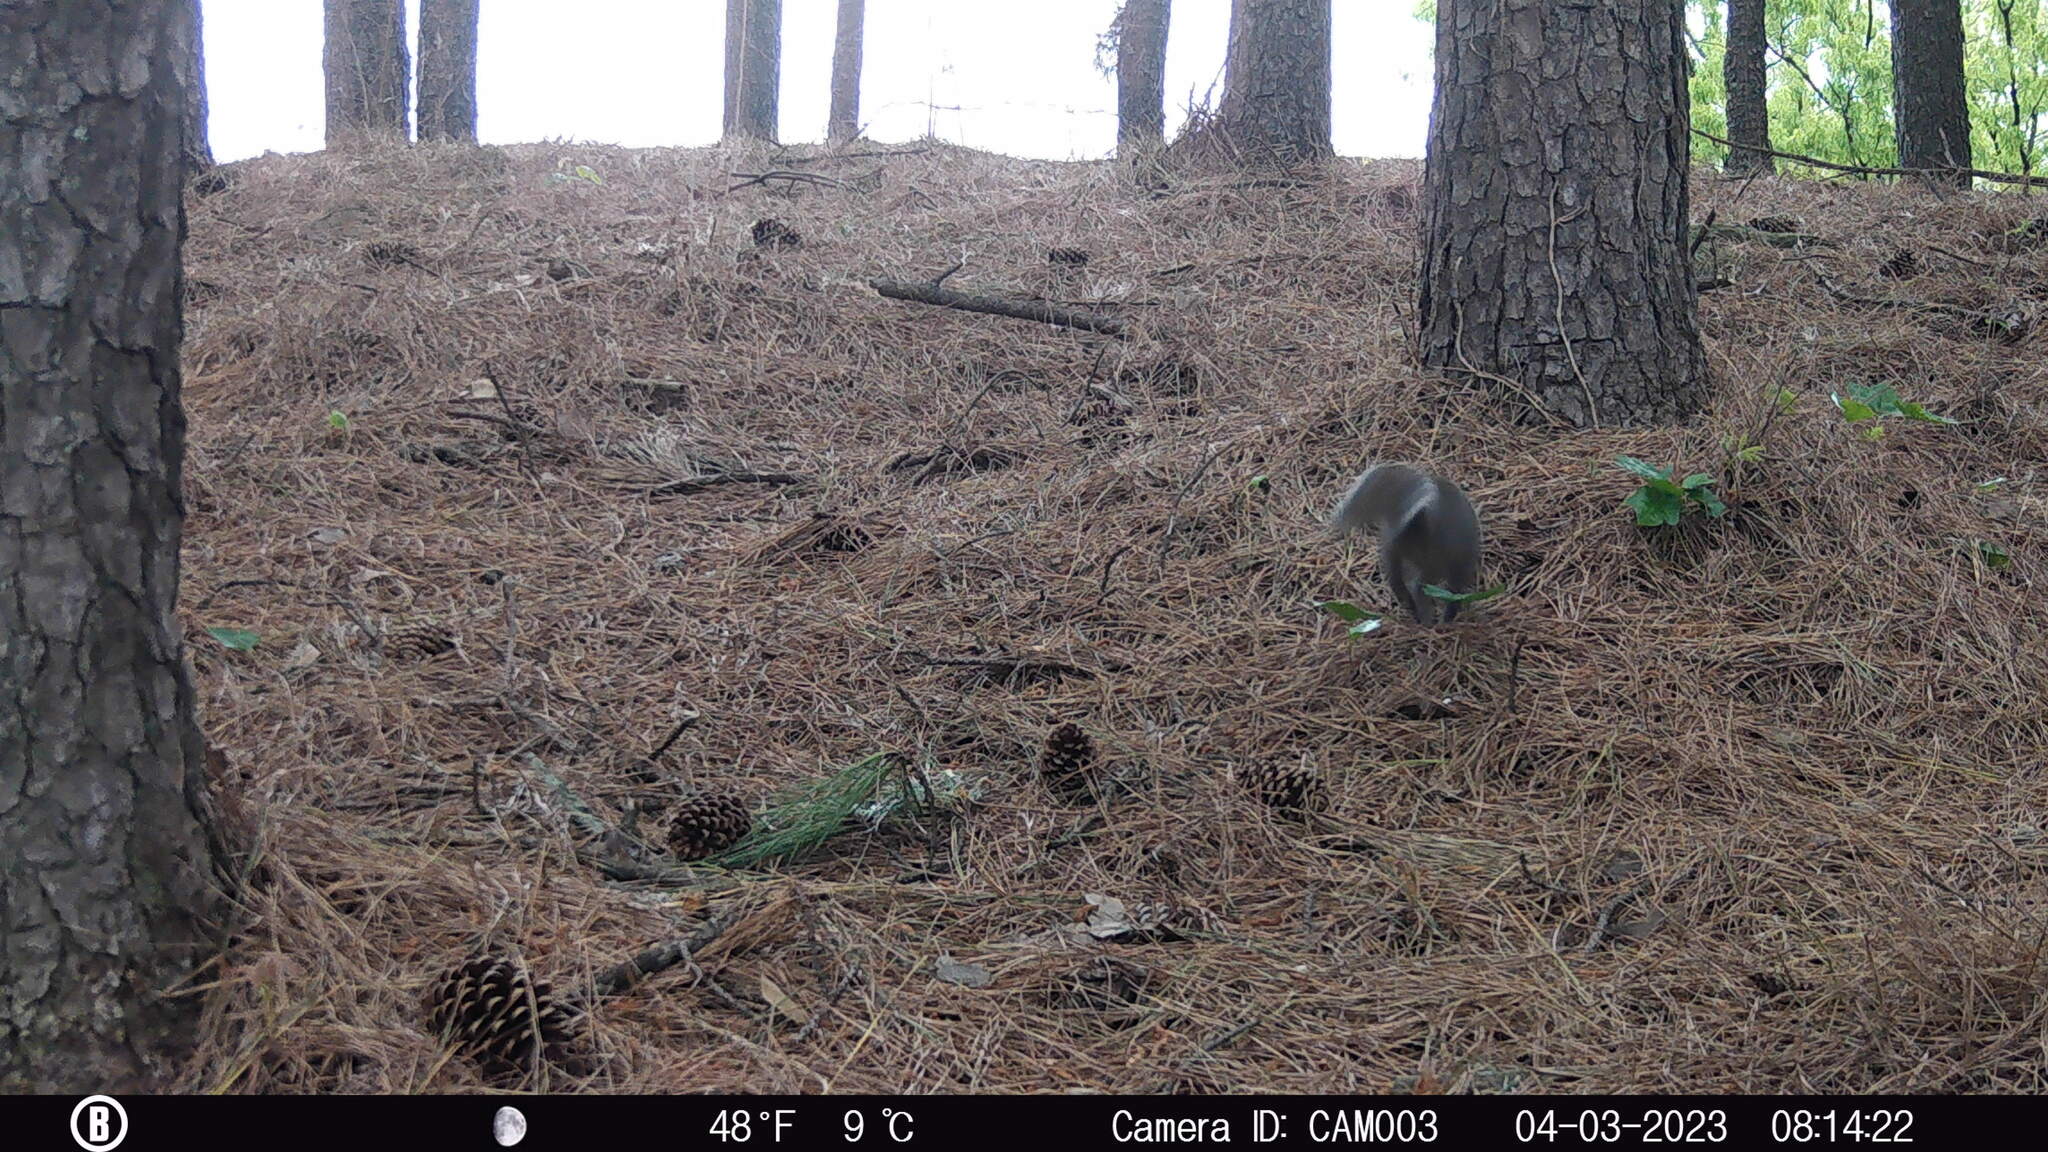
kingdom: Animalia
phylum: Chordata
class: Mammalia
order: Rodentia
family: Sciuridae
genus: Sciurus
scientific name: Sciurus carolinensis
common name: Eastern gray squirrel
